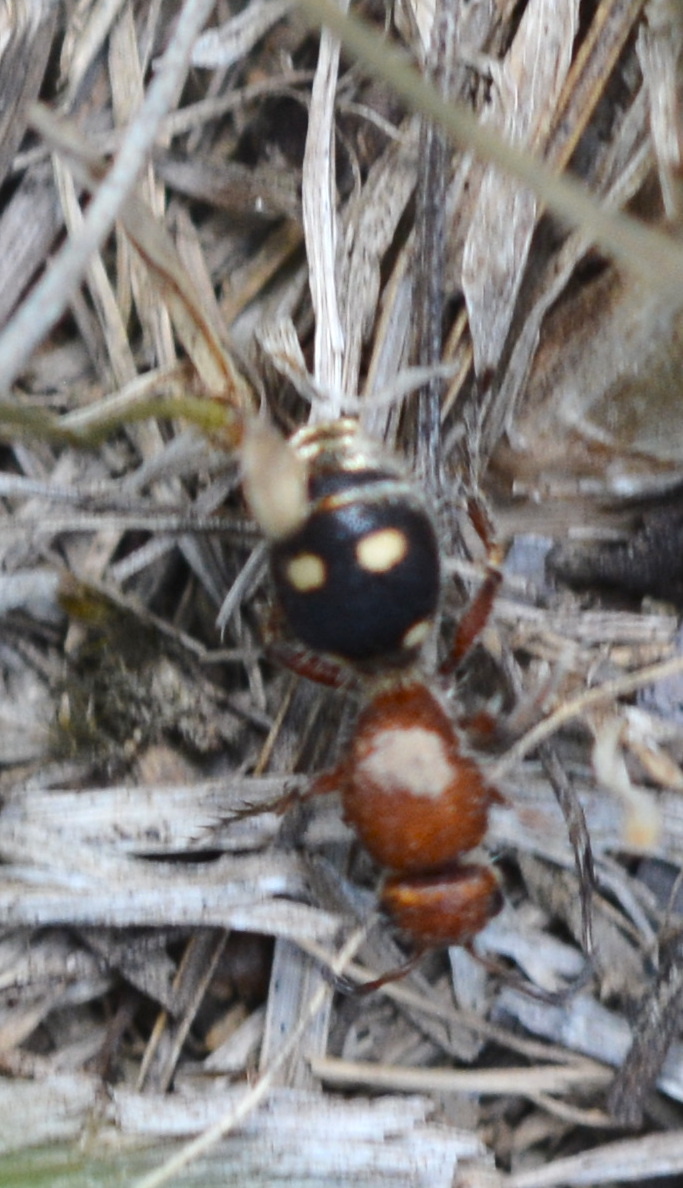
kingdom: Animalia
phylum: Arthropoda
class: Insecta
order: Hymenoptera
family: Mutillidae
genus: Dasymutilla
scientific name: Dasymutilla
